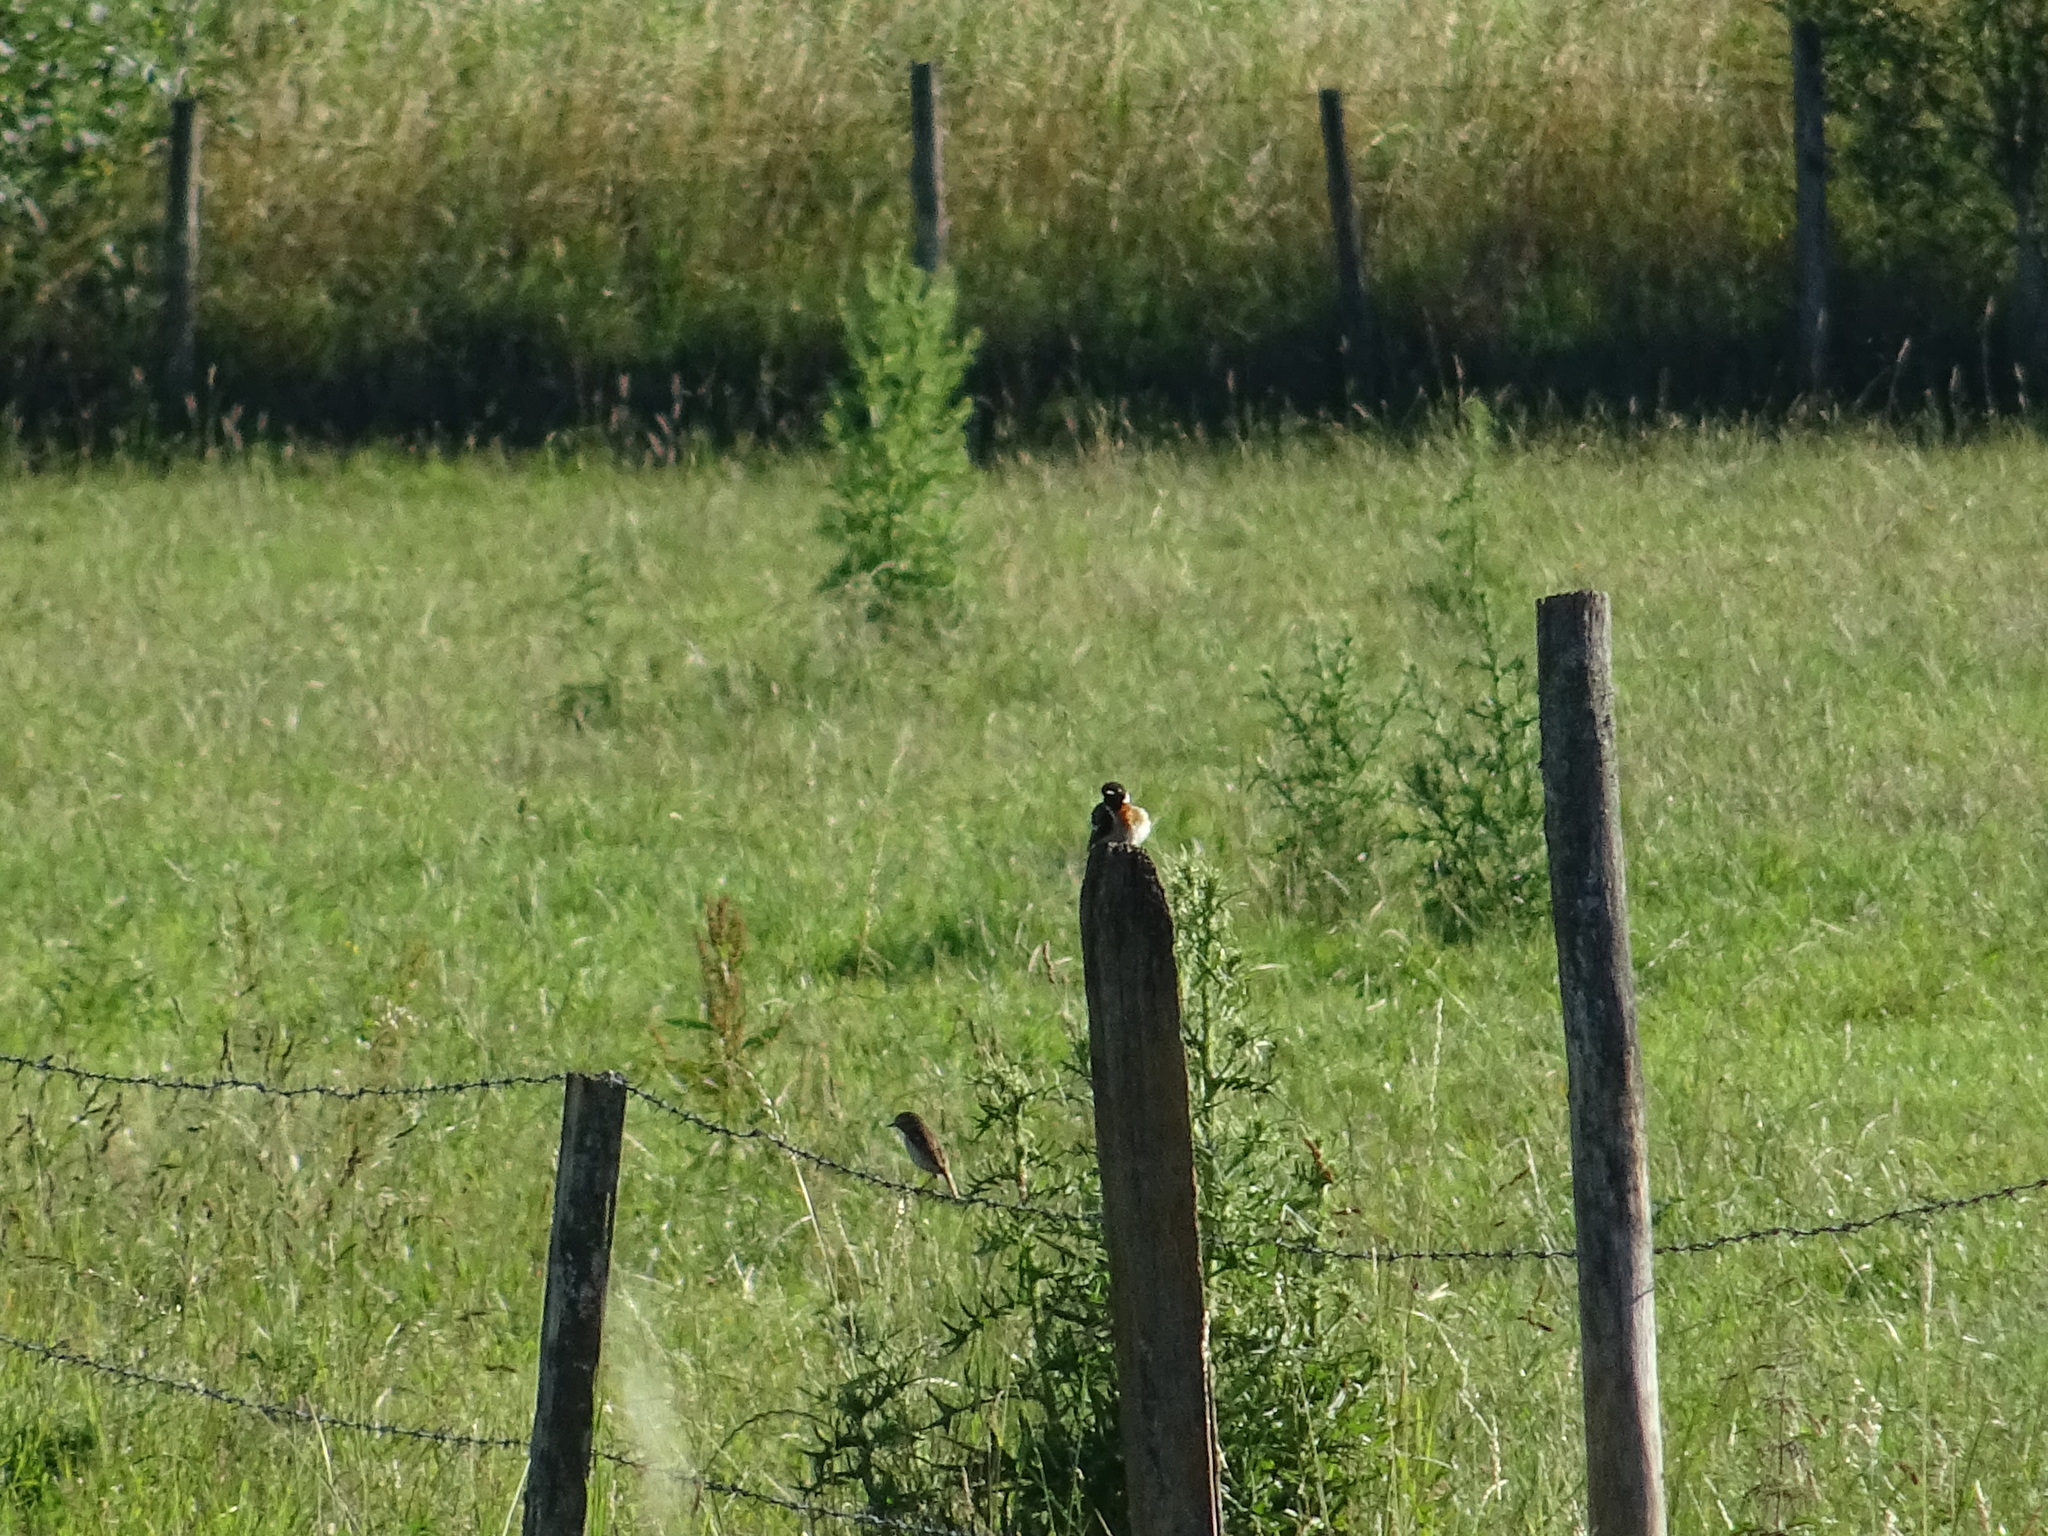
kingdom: Animalia
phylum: Chordata
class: Aves
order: Passeriformes
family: Muscicapidae
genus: Saxicola
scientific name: Saxicola rubicola
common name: European stonechat
